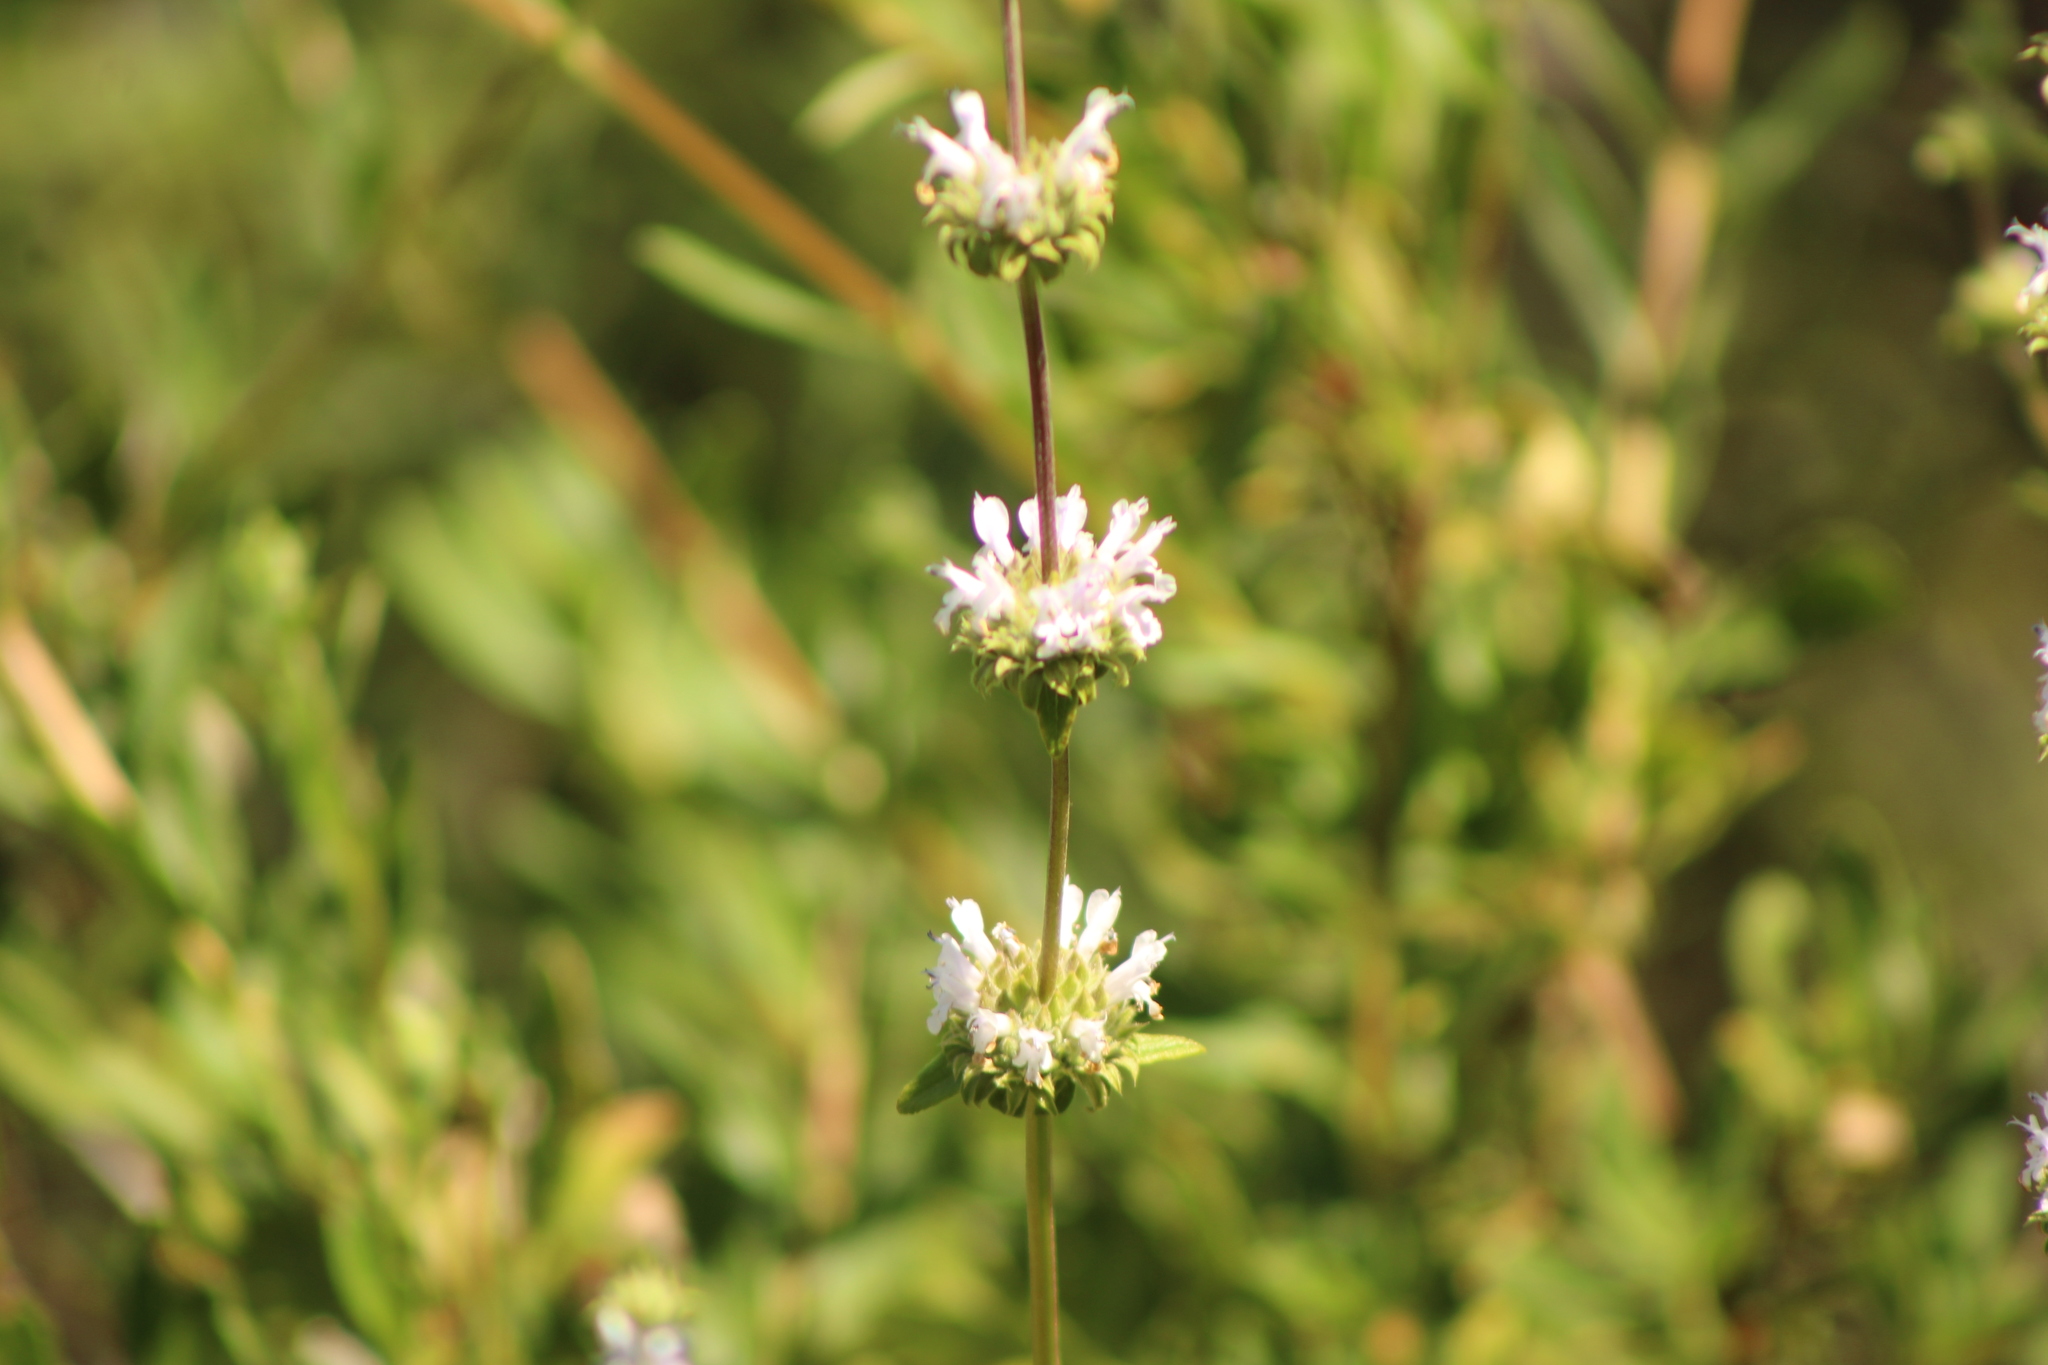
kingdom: Plantae
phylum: Tracheophyta
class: Magnoliopsida
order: Lamiales
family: Lamiaceae
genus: Salvia
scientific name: Salvia mellifera
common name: Black sage
